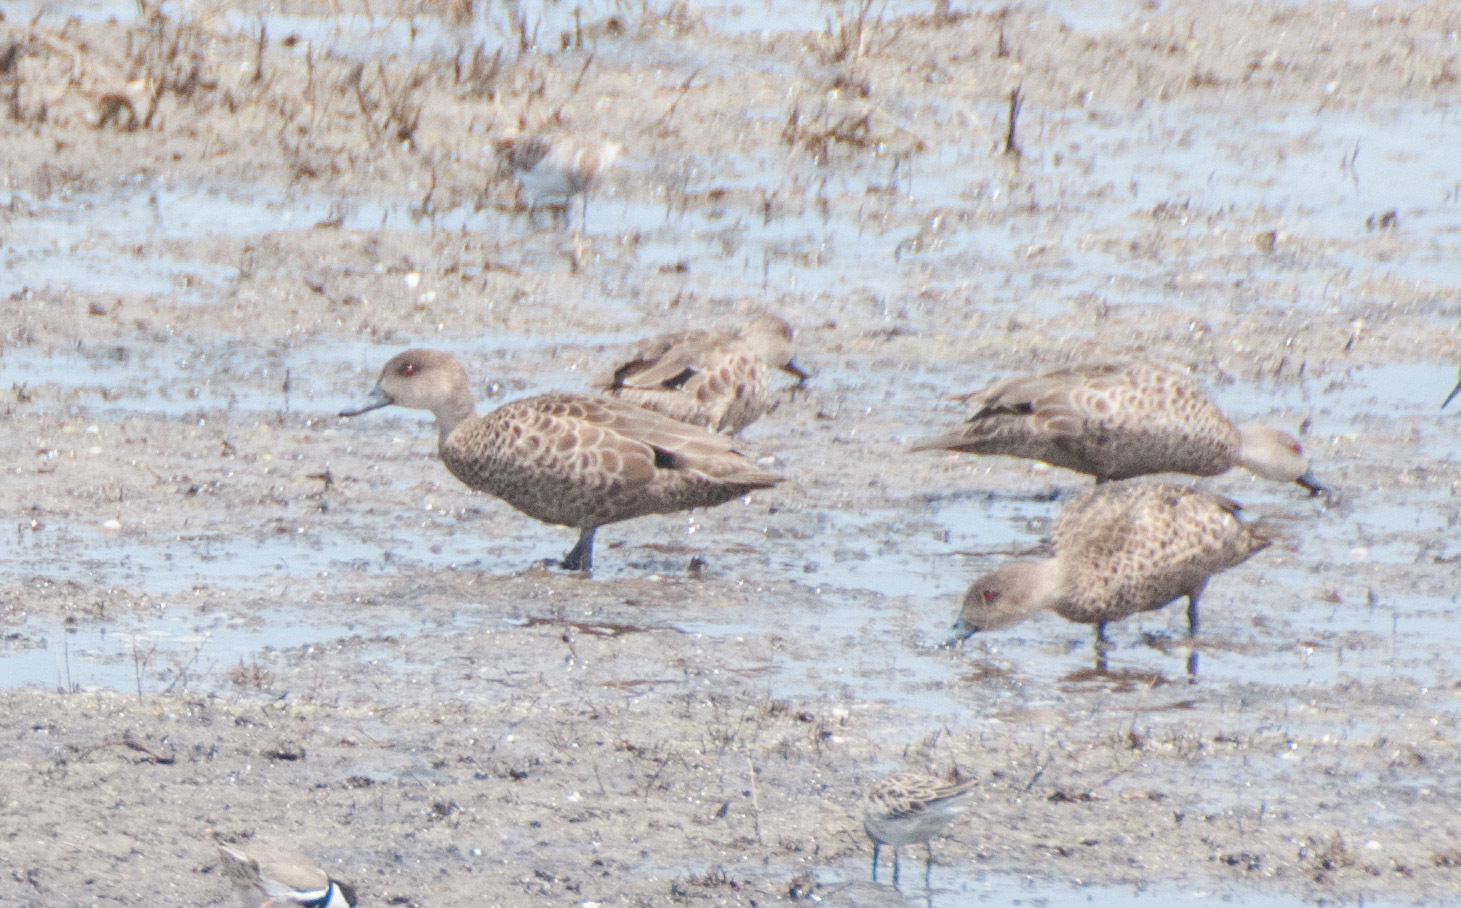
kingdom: Animalia
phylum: Chordata
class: Aves
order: Anseriformes
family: Anatidae
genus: Anas
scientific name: Anas gracilis
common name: Grey teal
